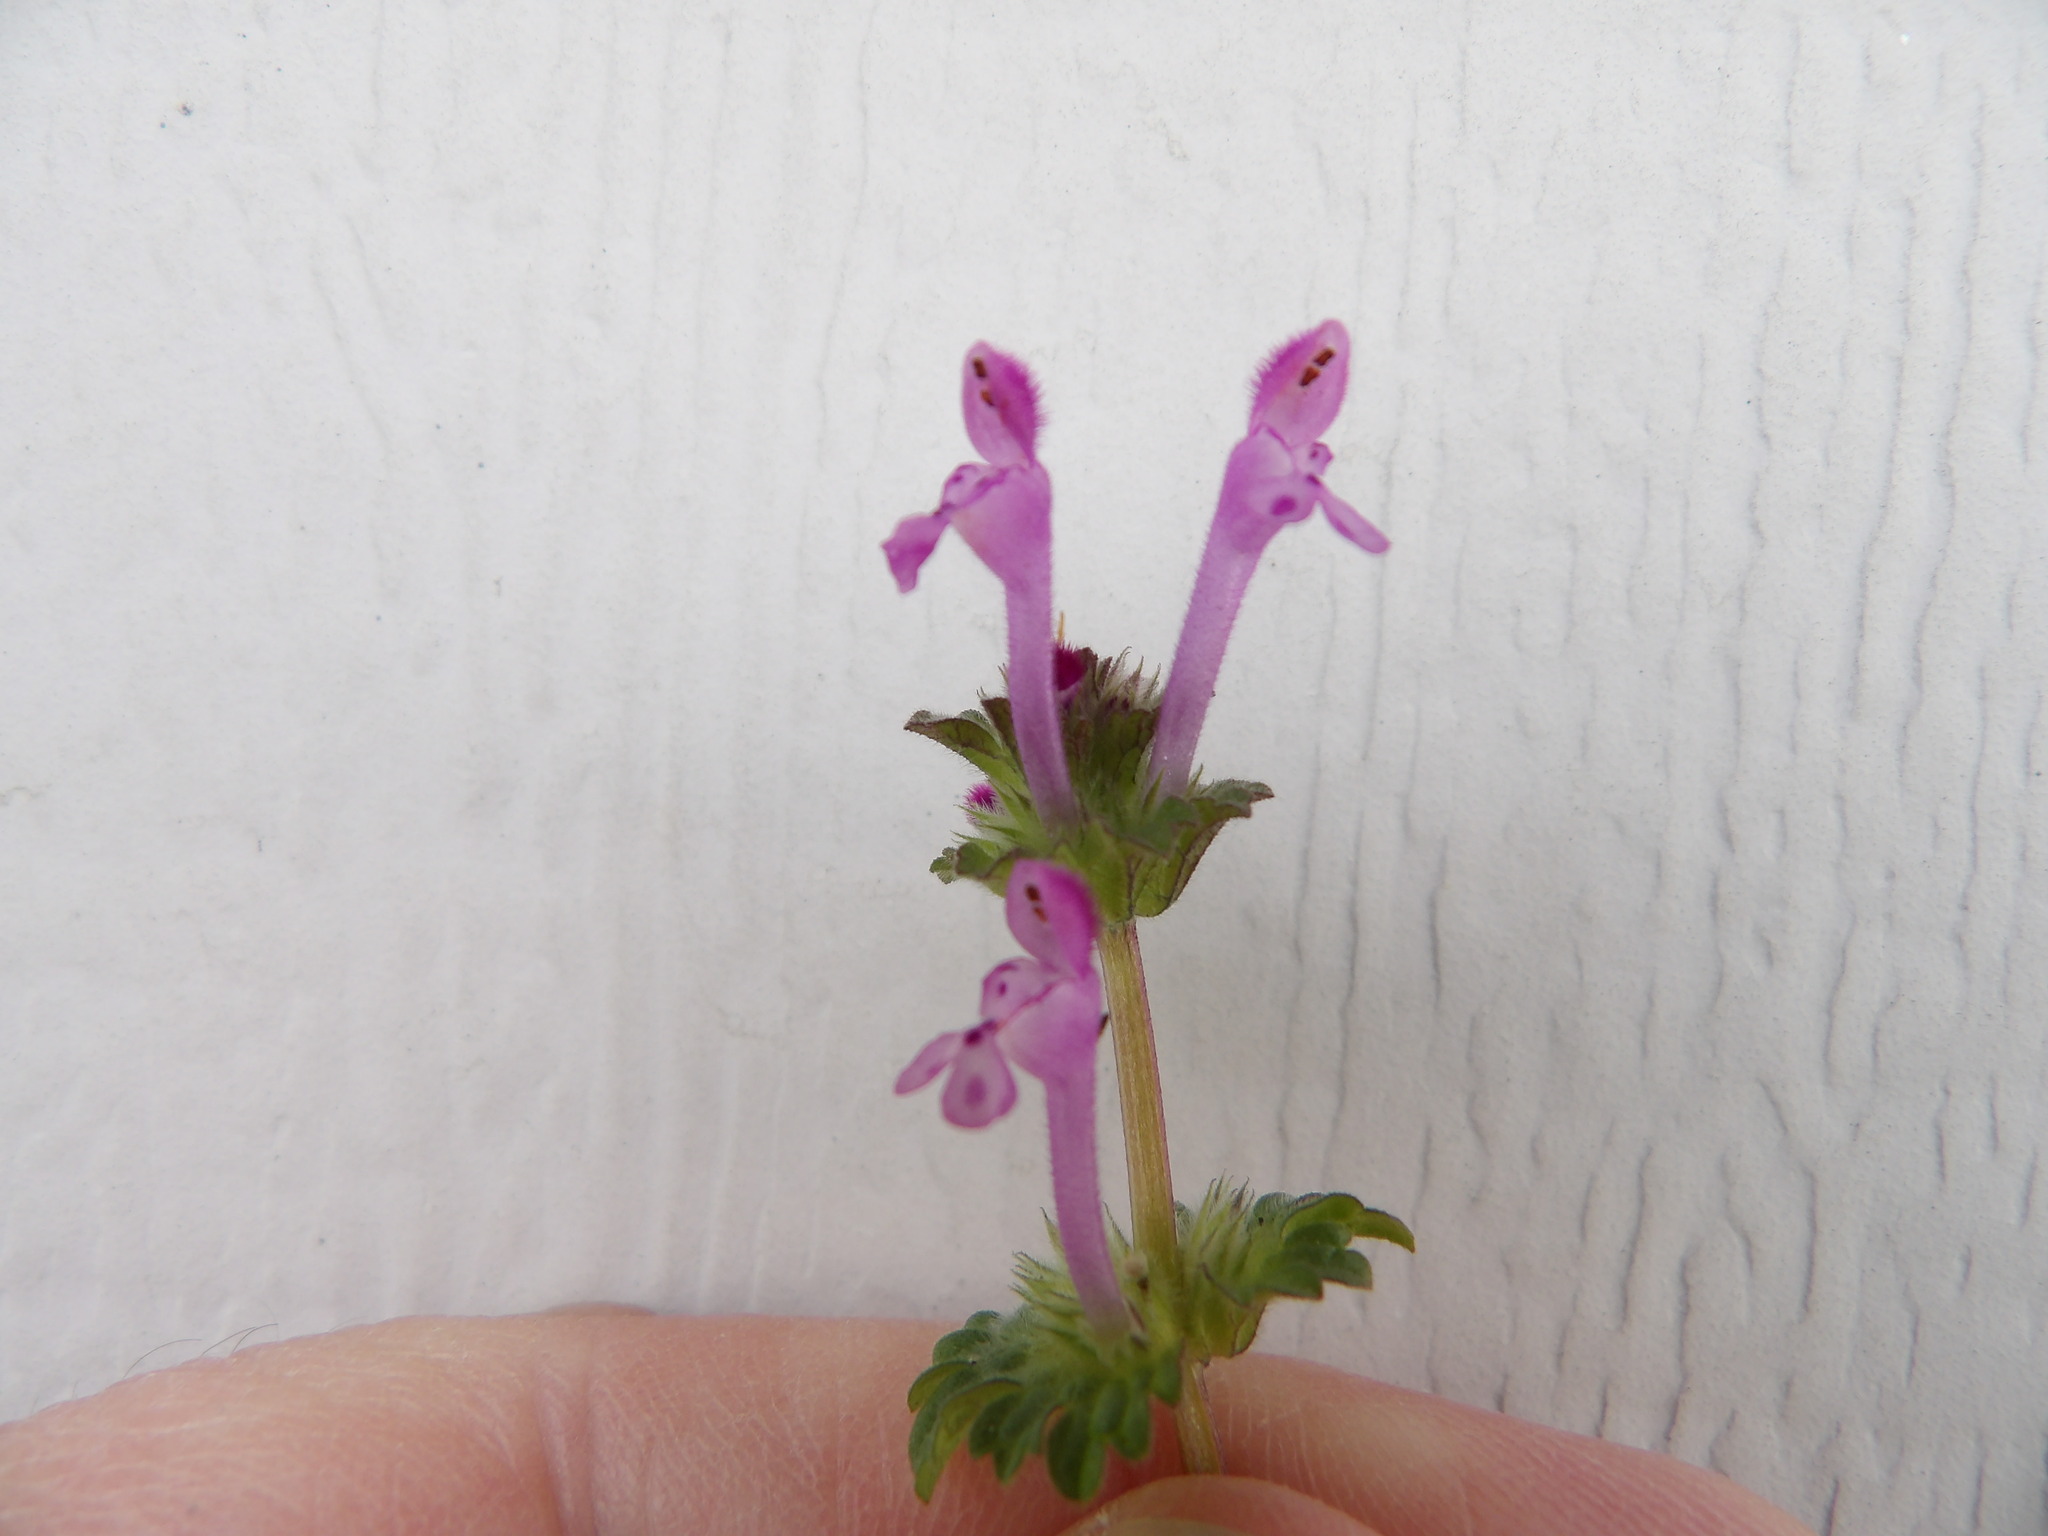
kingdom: Plantae
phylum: Tracheophyta
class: Magnoliopsida
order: Lamiales
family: Lamiaceae
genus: Lamium
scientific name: Lamium amplexicaule
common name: Henbit dead-nettle
